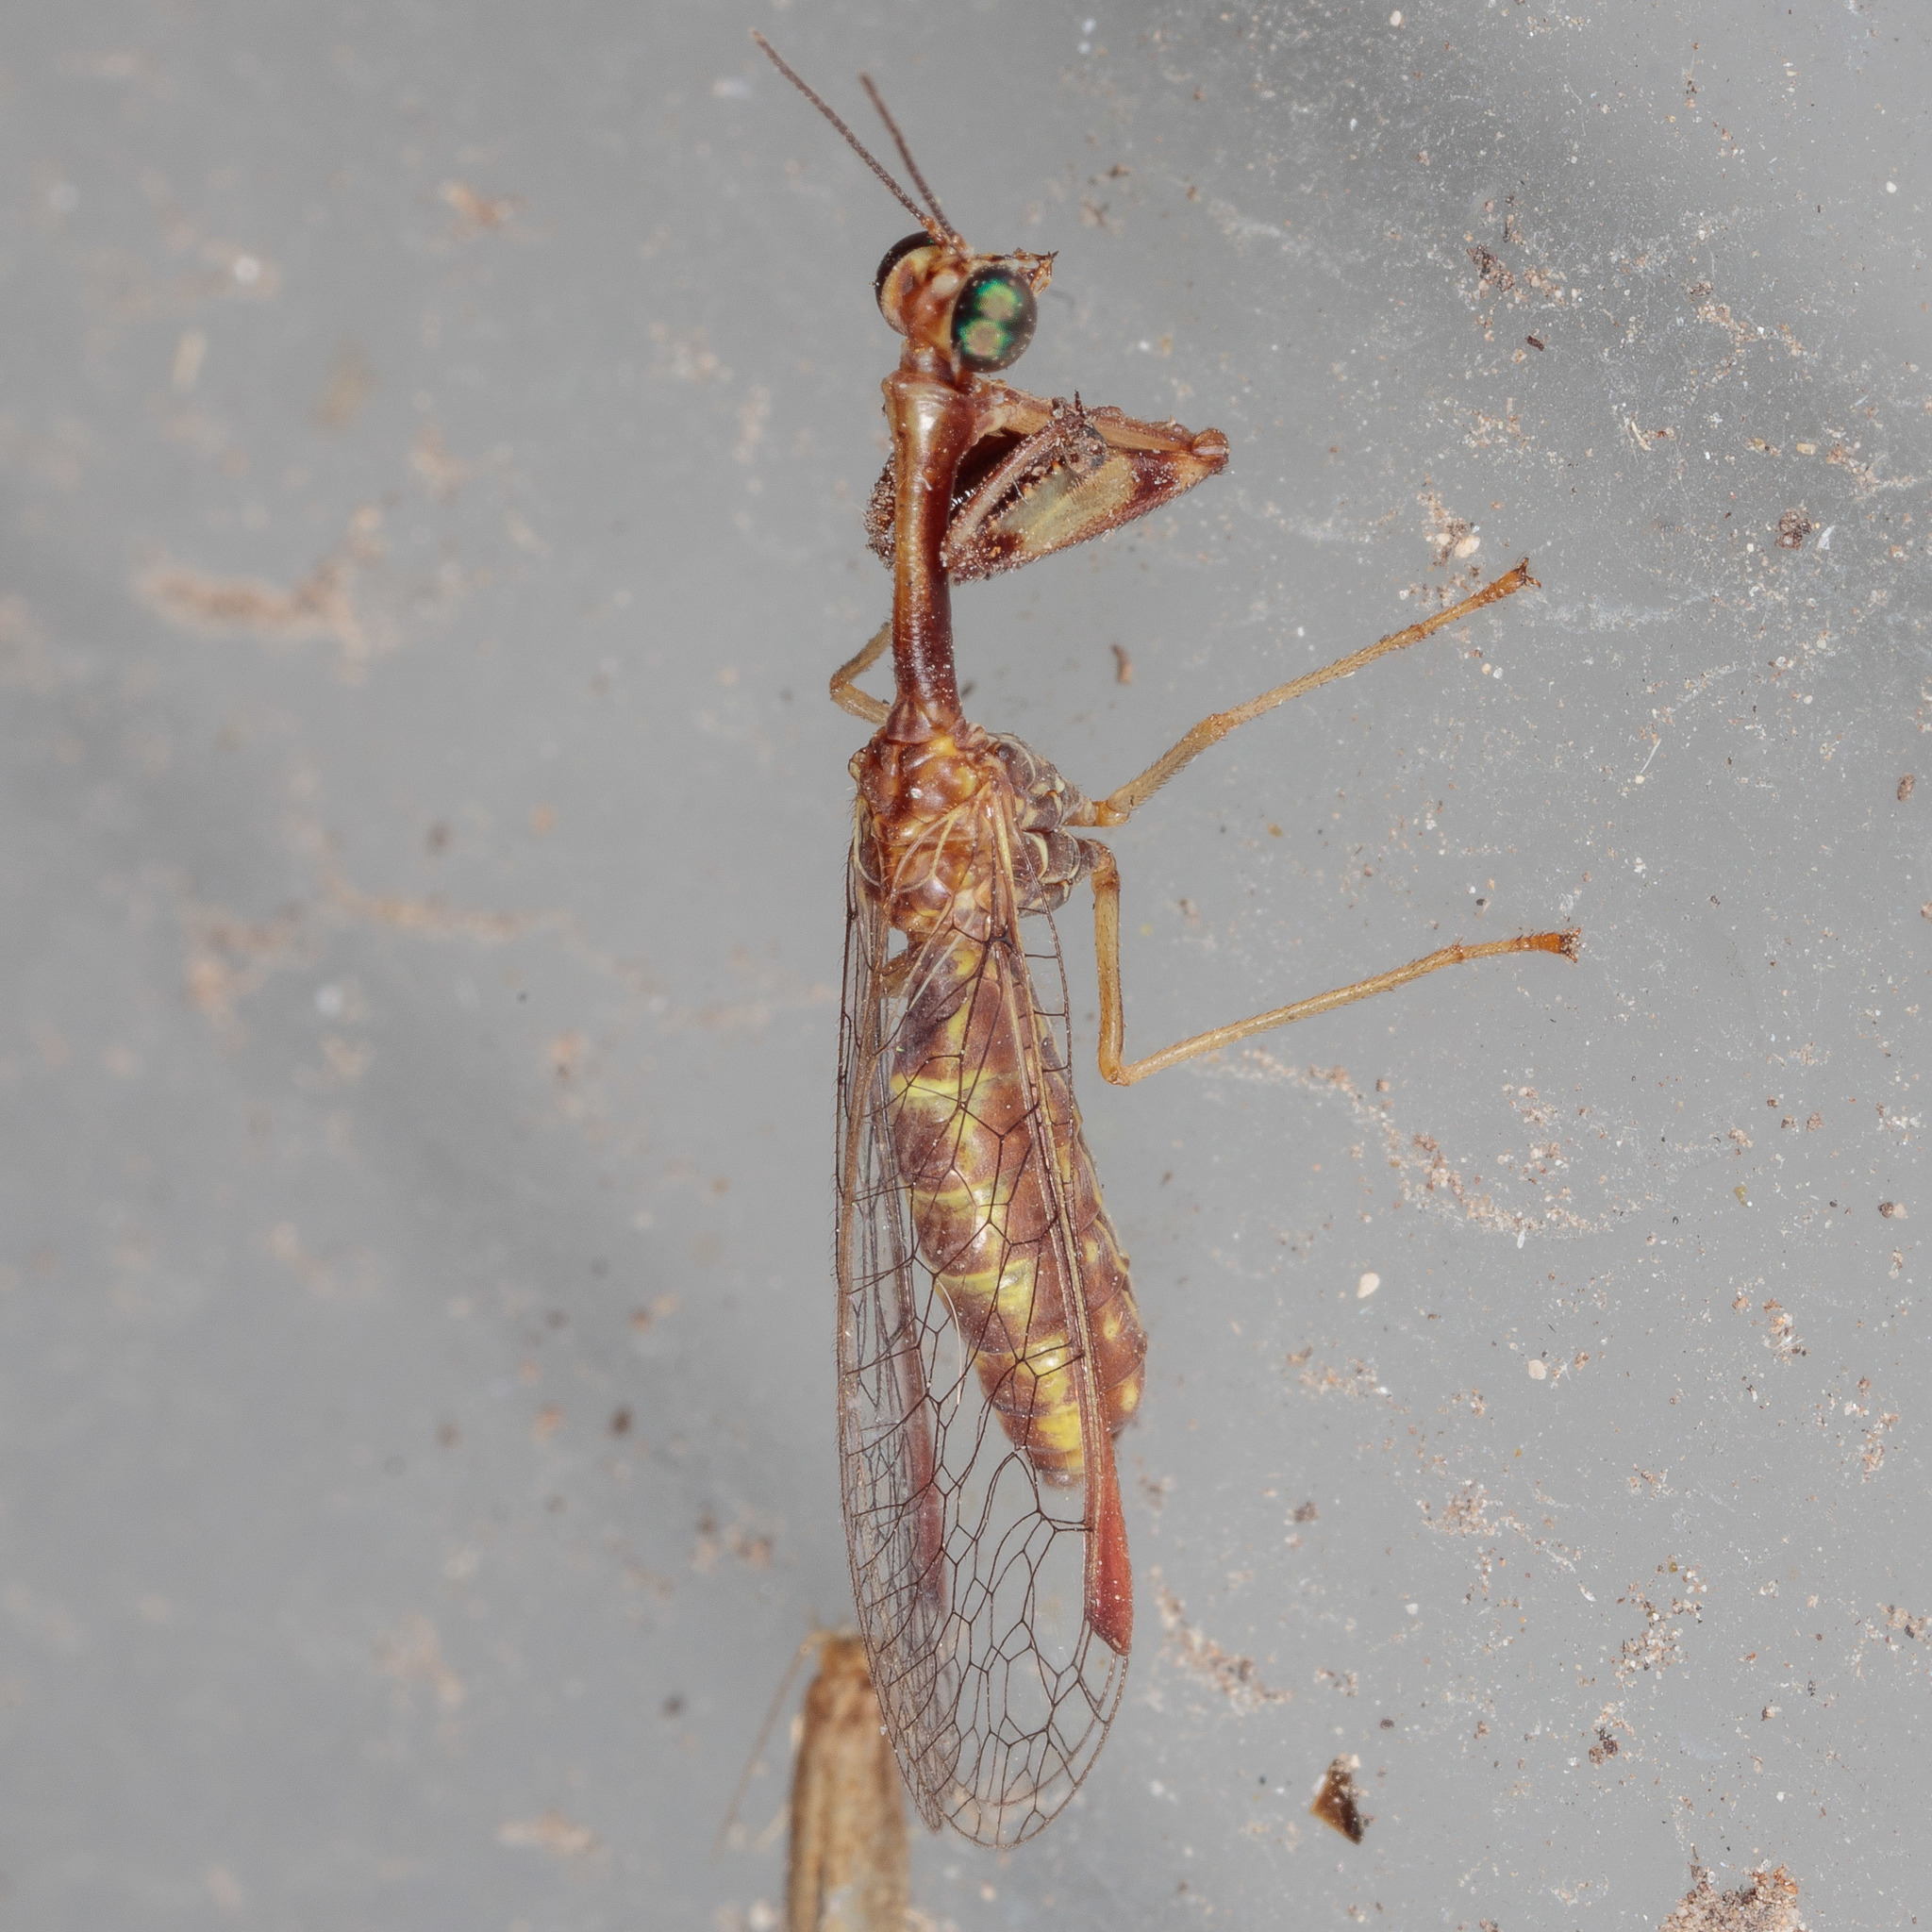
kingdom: Animalia
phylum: Arthropoda
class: Insecta
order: Neuroptera
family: Mantispidae
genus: Leptomantispa
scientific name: Leptomantispa pulchella
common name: Stevens's mantidfly
